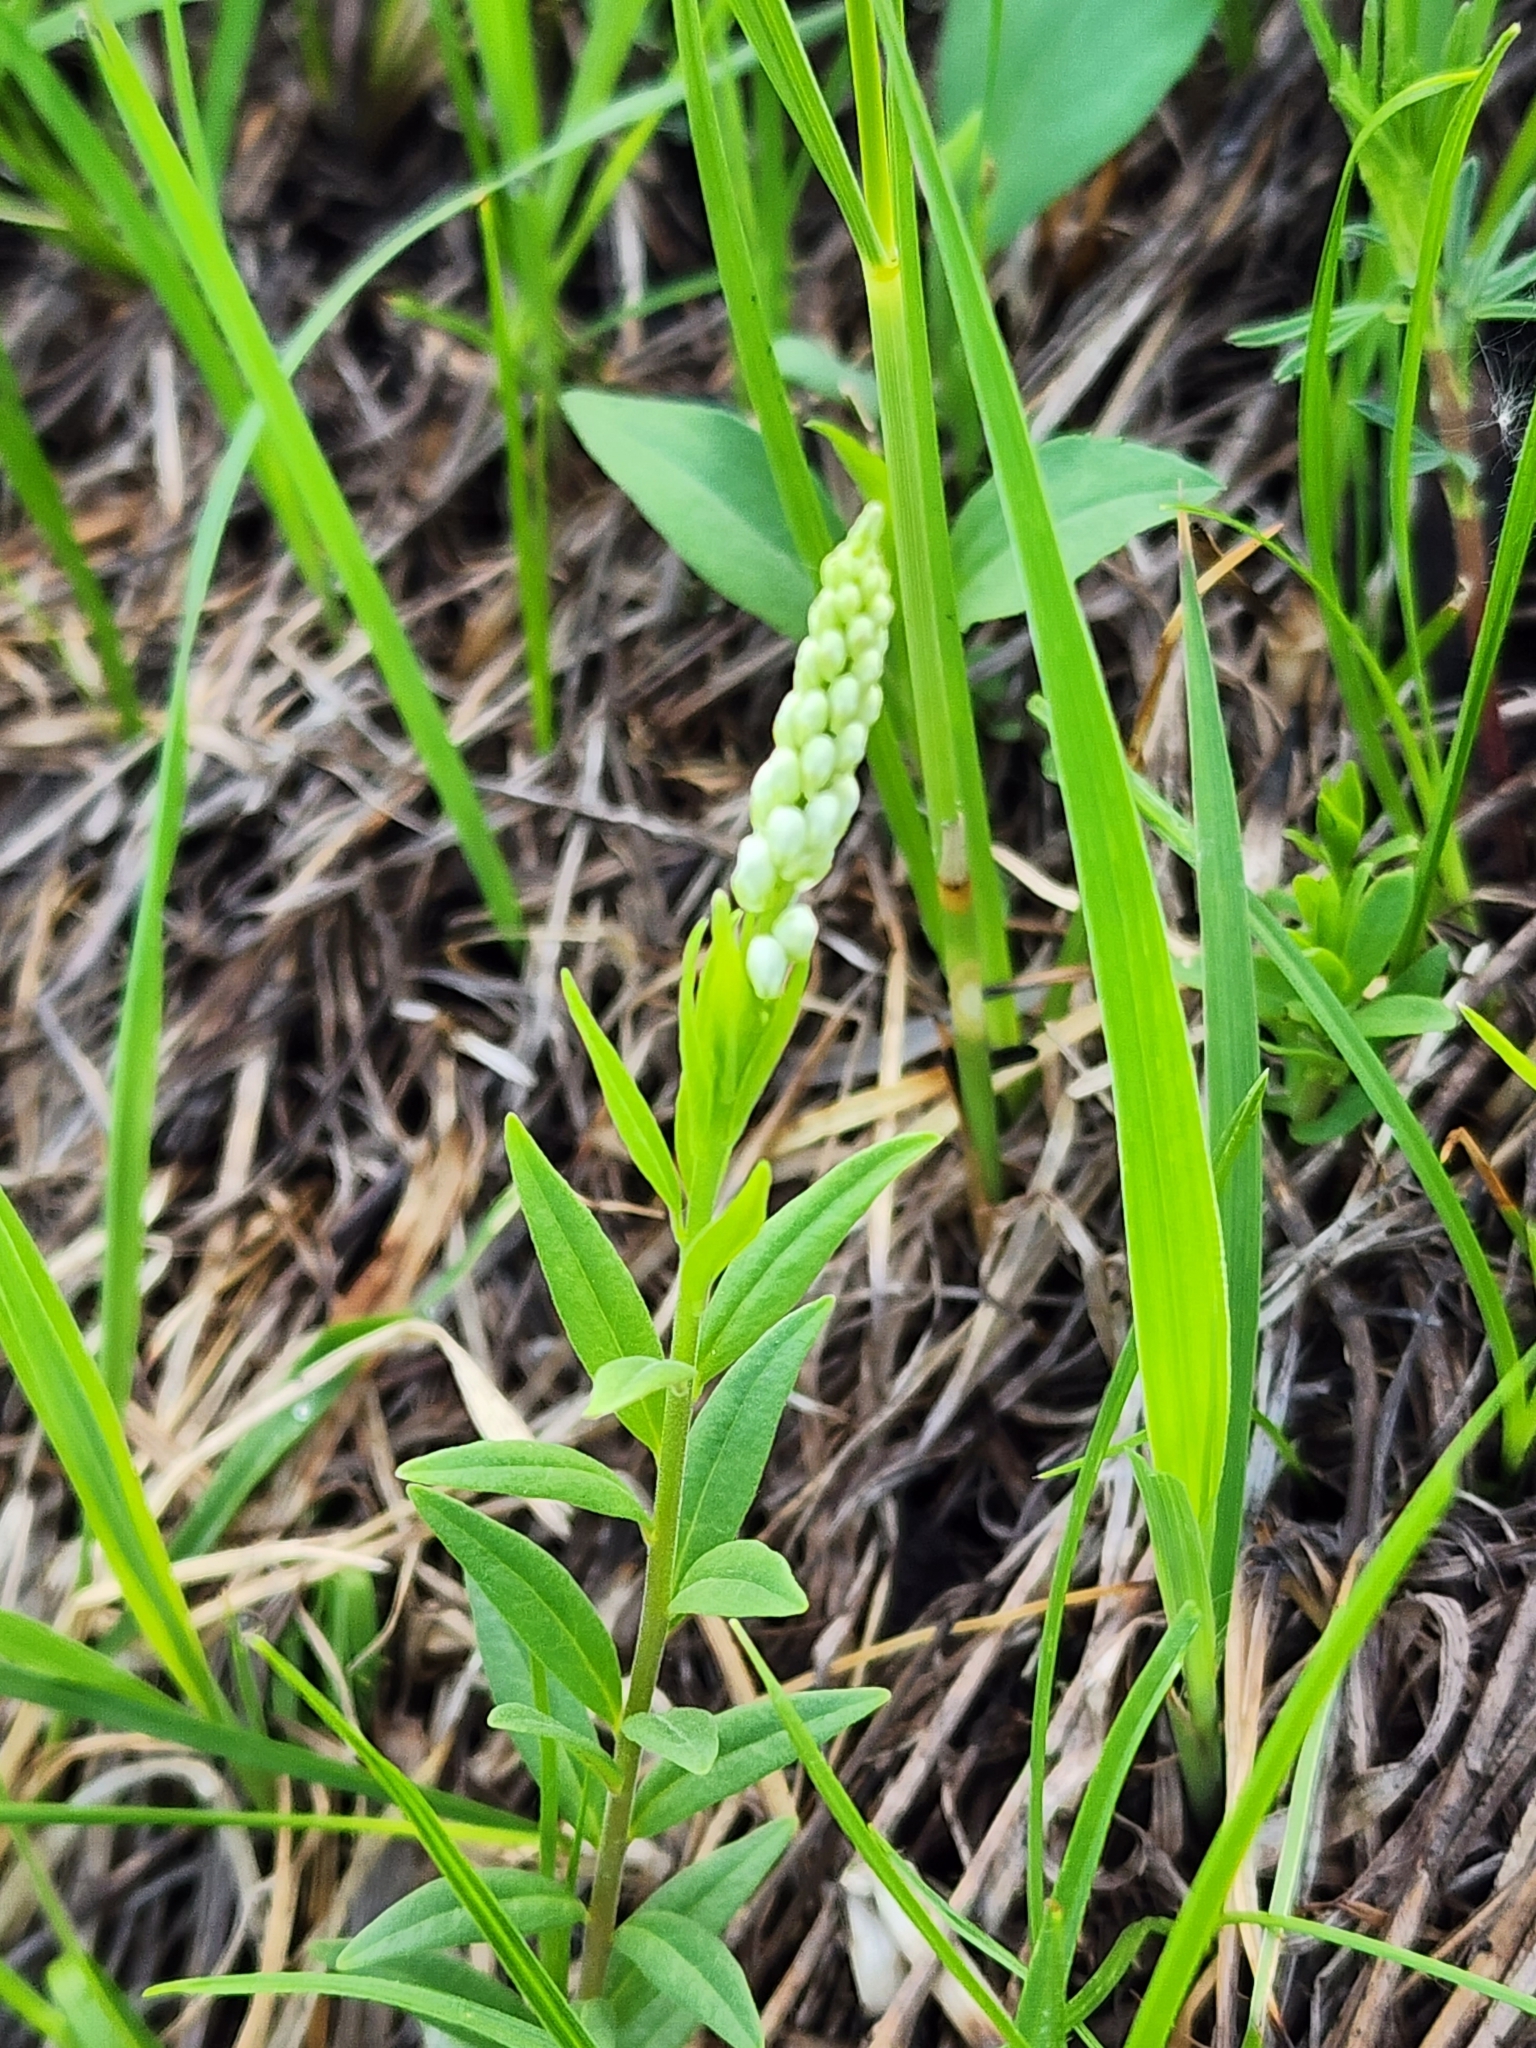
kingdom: Plantae
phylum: Tracheophyta
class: Magnoliopsida
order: Fabales
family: Polygalaceae
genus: Polygala
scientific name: Polygala senega
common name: Seneca snakeroot
